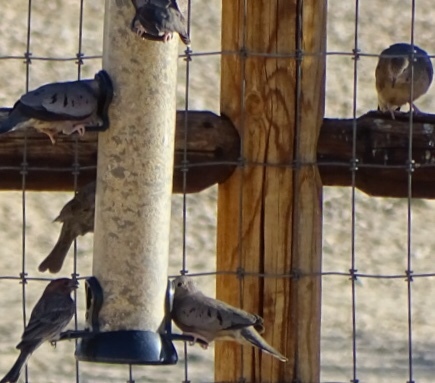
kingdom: Animalia
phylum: Chordata
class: Aves
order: Passeriformes
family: Fringillidae
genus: Haemorhous
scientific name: Haemorhous mexicanus
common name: House finch
